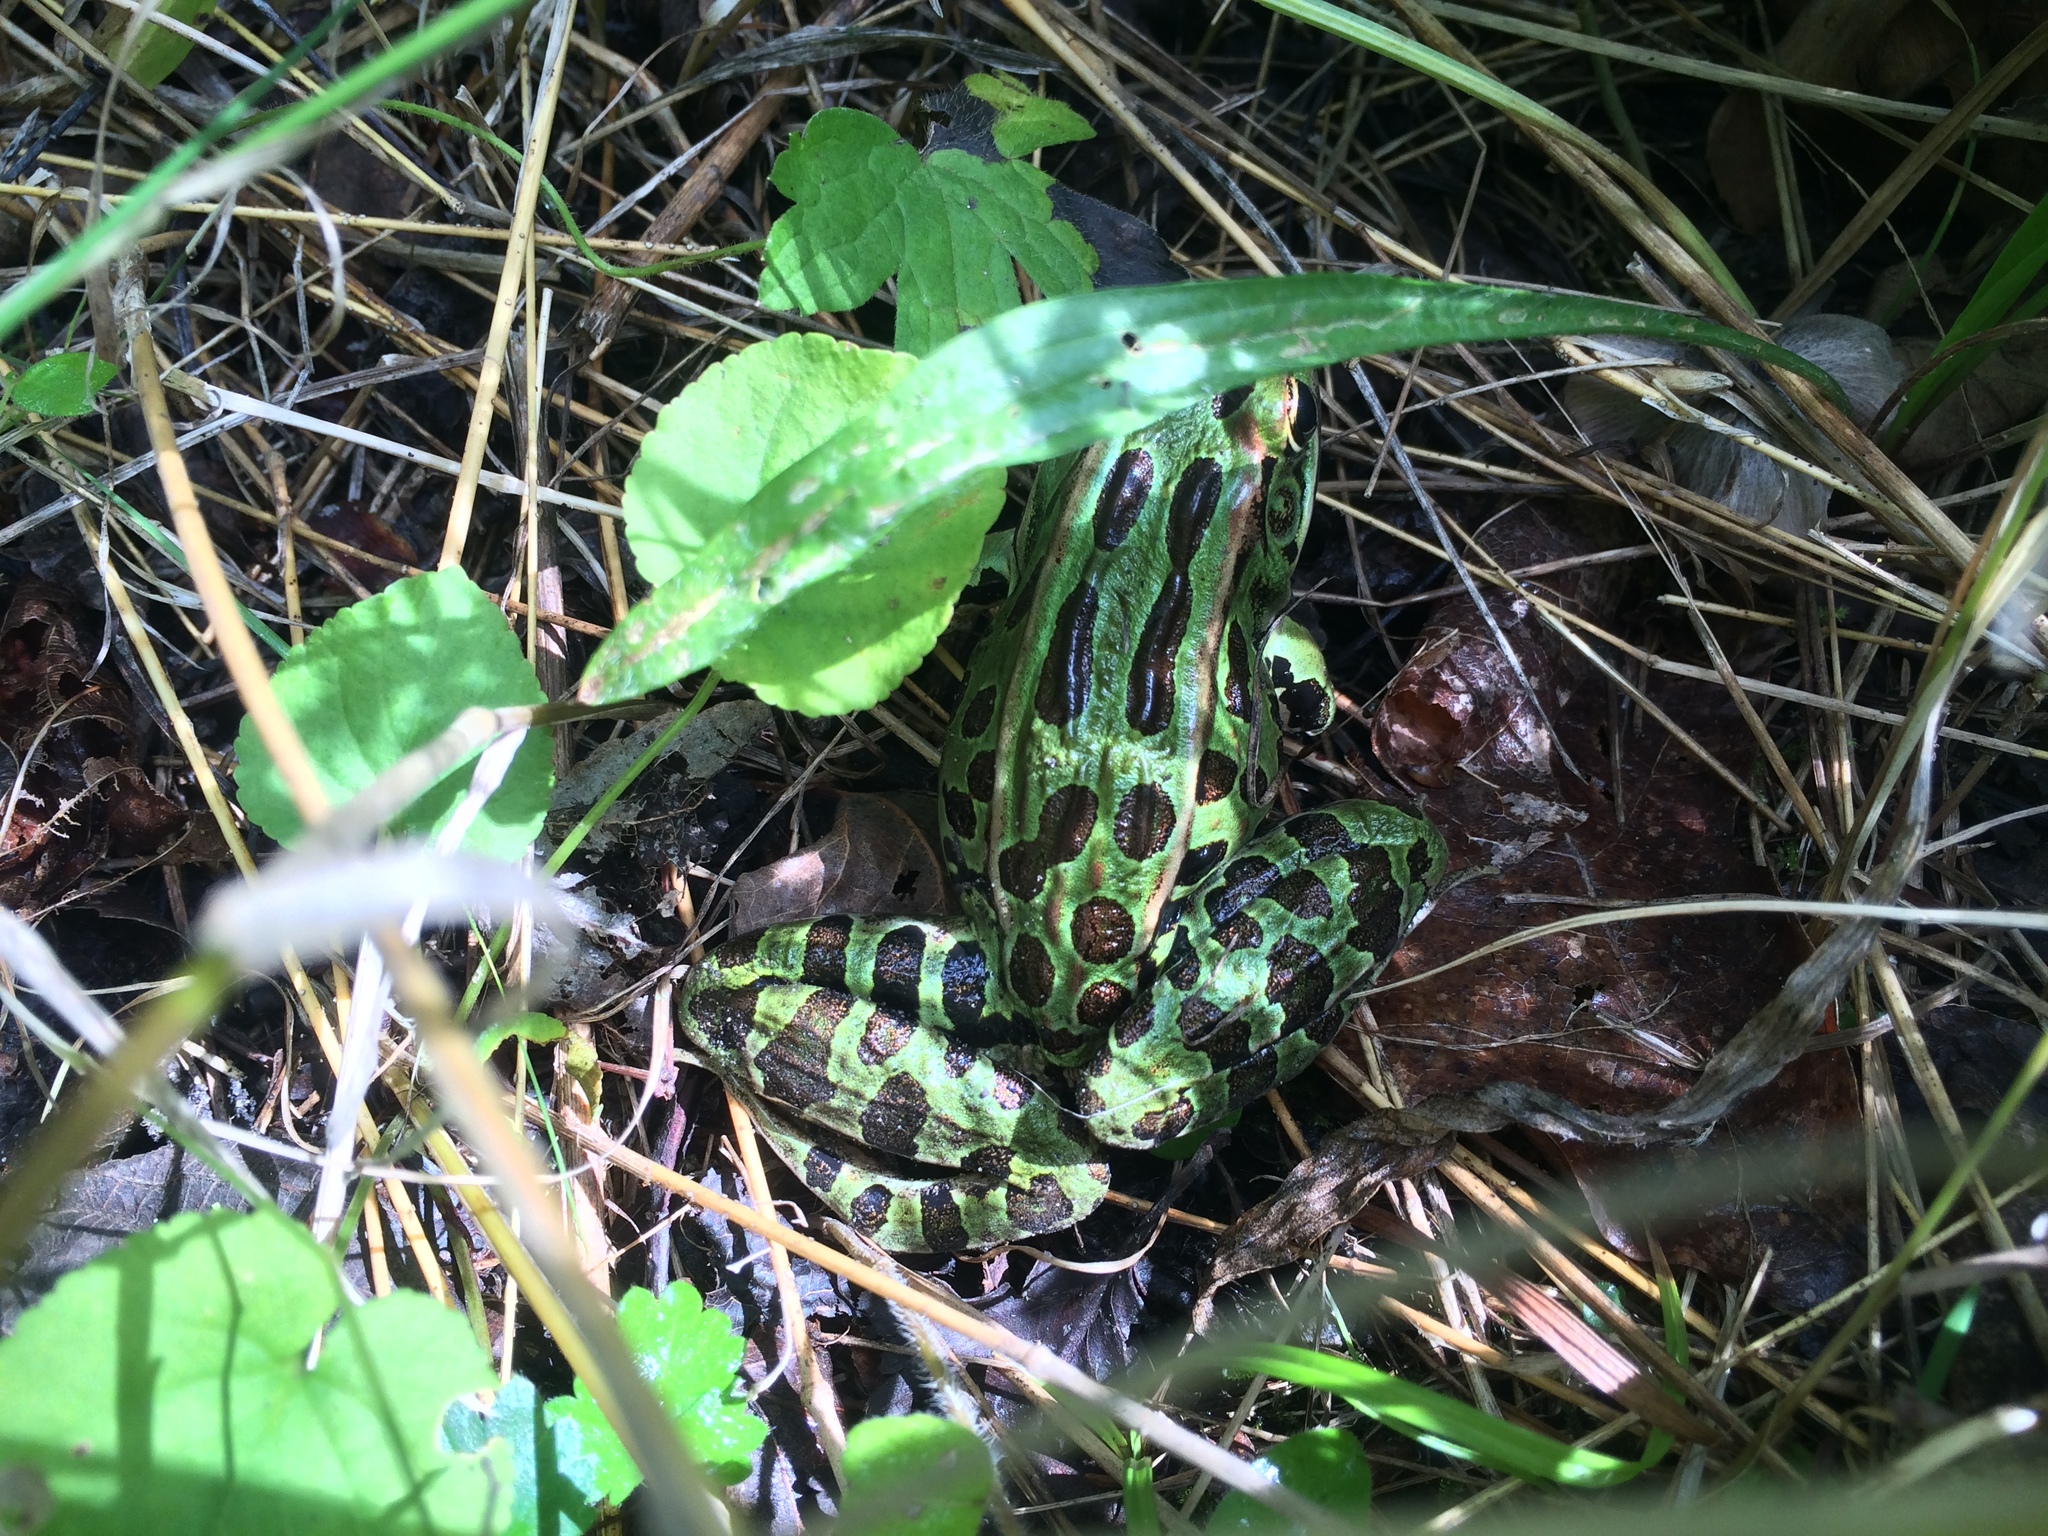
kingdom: Animalia
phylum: Chordata
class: Amphibia
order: Anura
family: Ranidae
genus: Lithobates
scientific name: Lithobates pipiens
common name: Northern leopard frog
